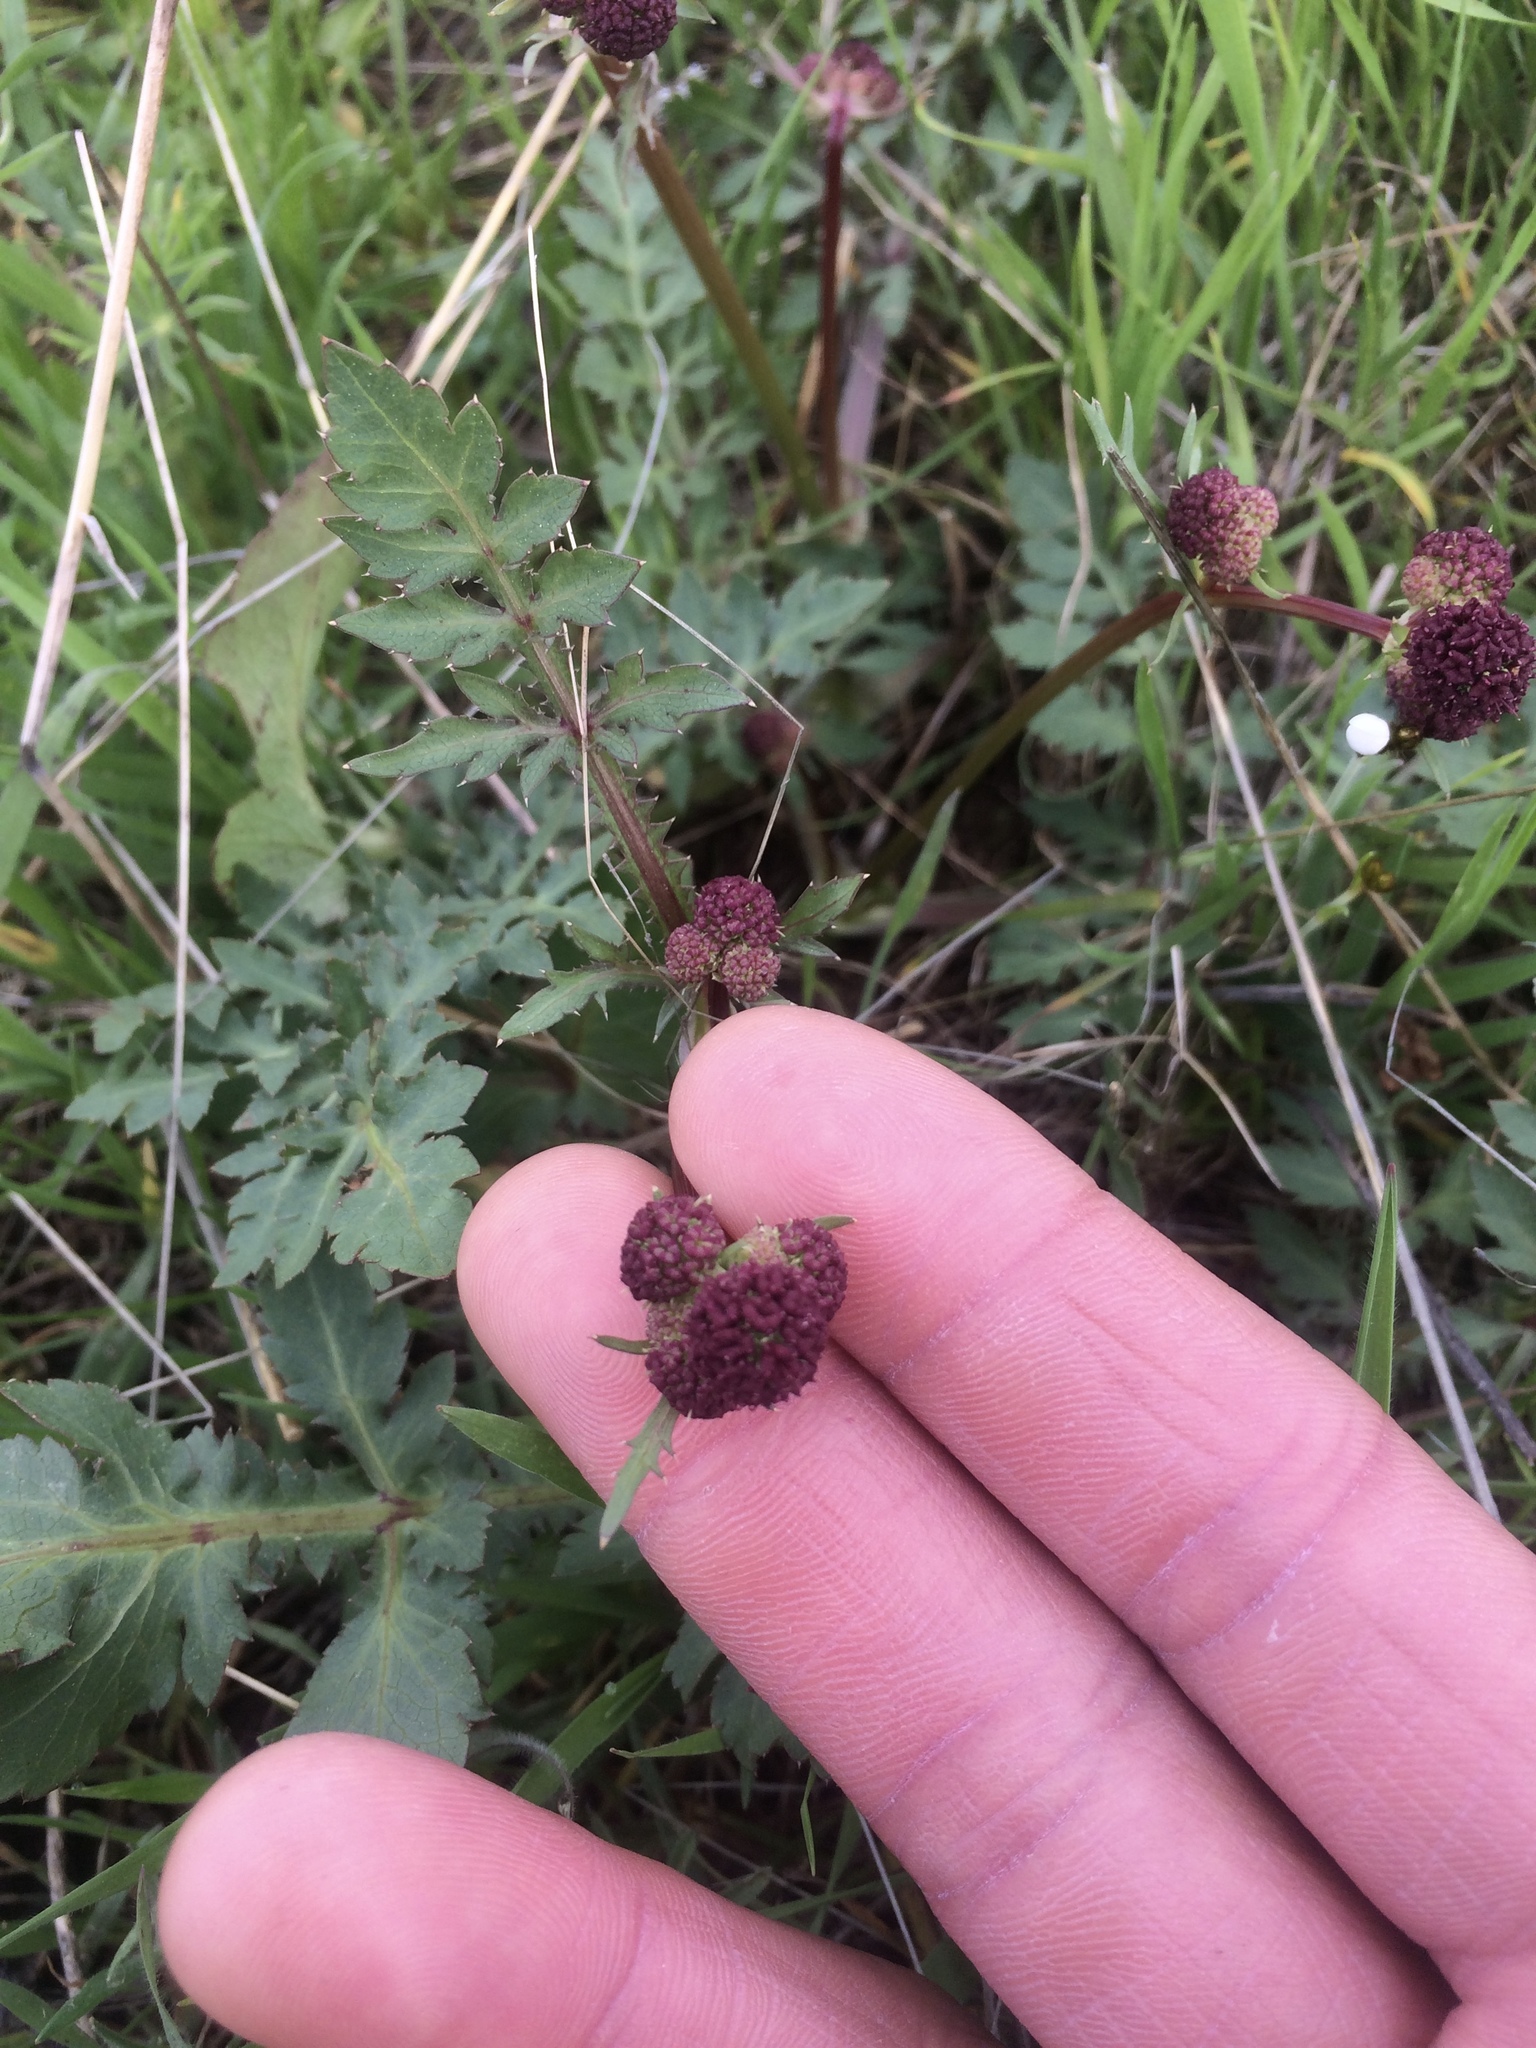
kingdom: Plantae
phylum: Tracheophyta
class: Magnoliopsida
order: Apiales
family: Apiaceae
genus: Sanicula
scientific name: Sanicula bipinnatifida
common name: Shoe-buttons
